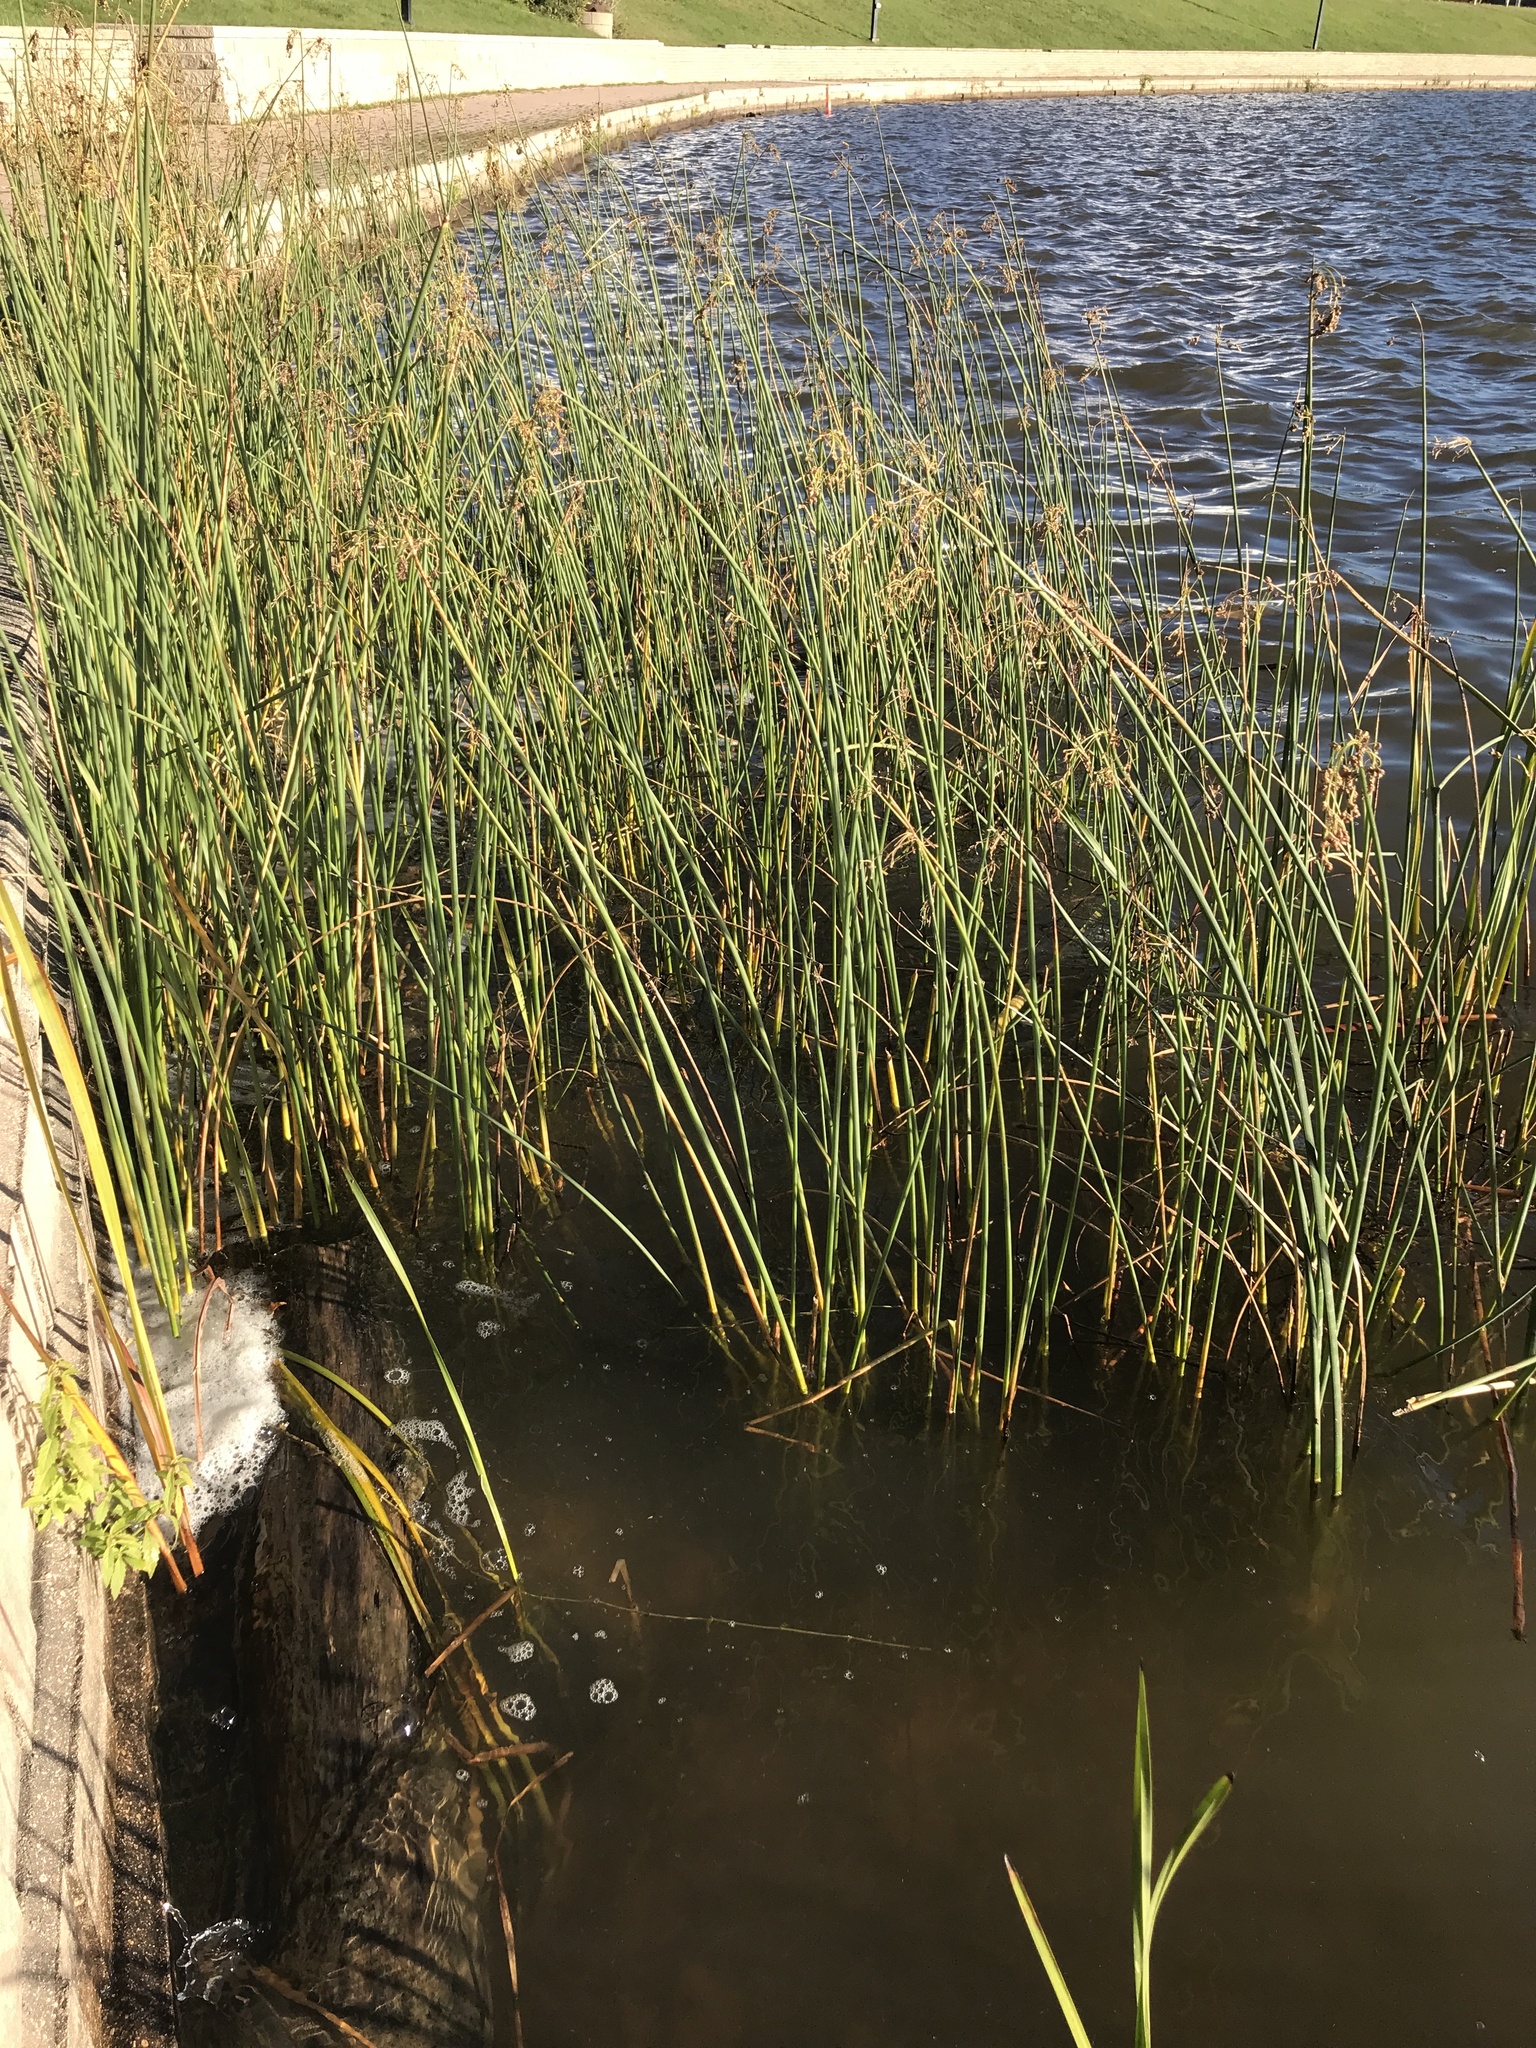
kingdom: Plantae
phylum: Tracheophyta
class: Liliopsida
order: Poales
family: Cyperaceae
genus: Schoenoplectus
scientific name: Schoenoplectus tabernaemontani
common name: Grey club-rush
